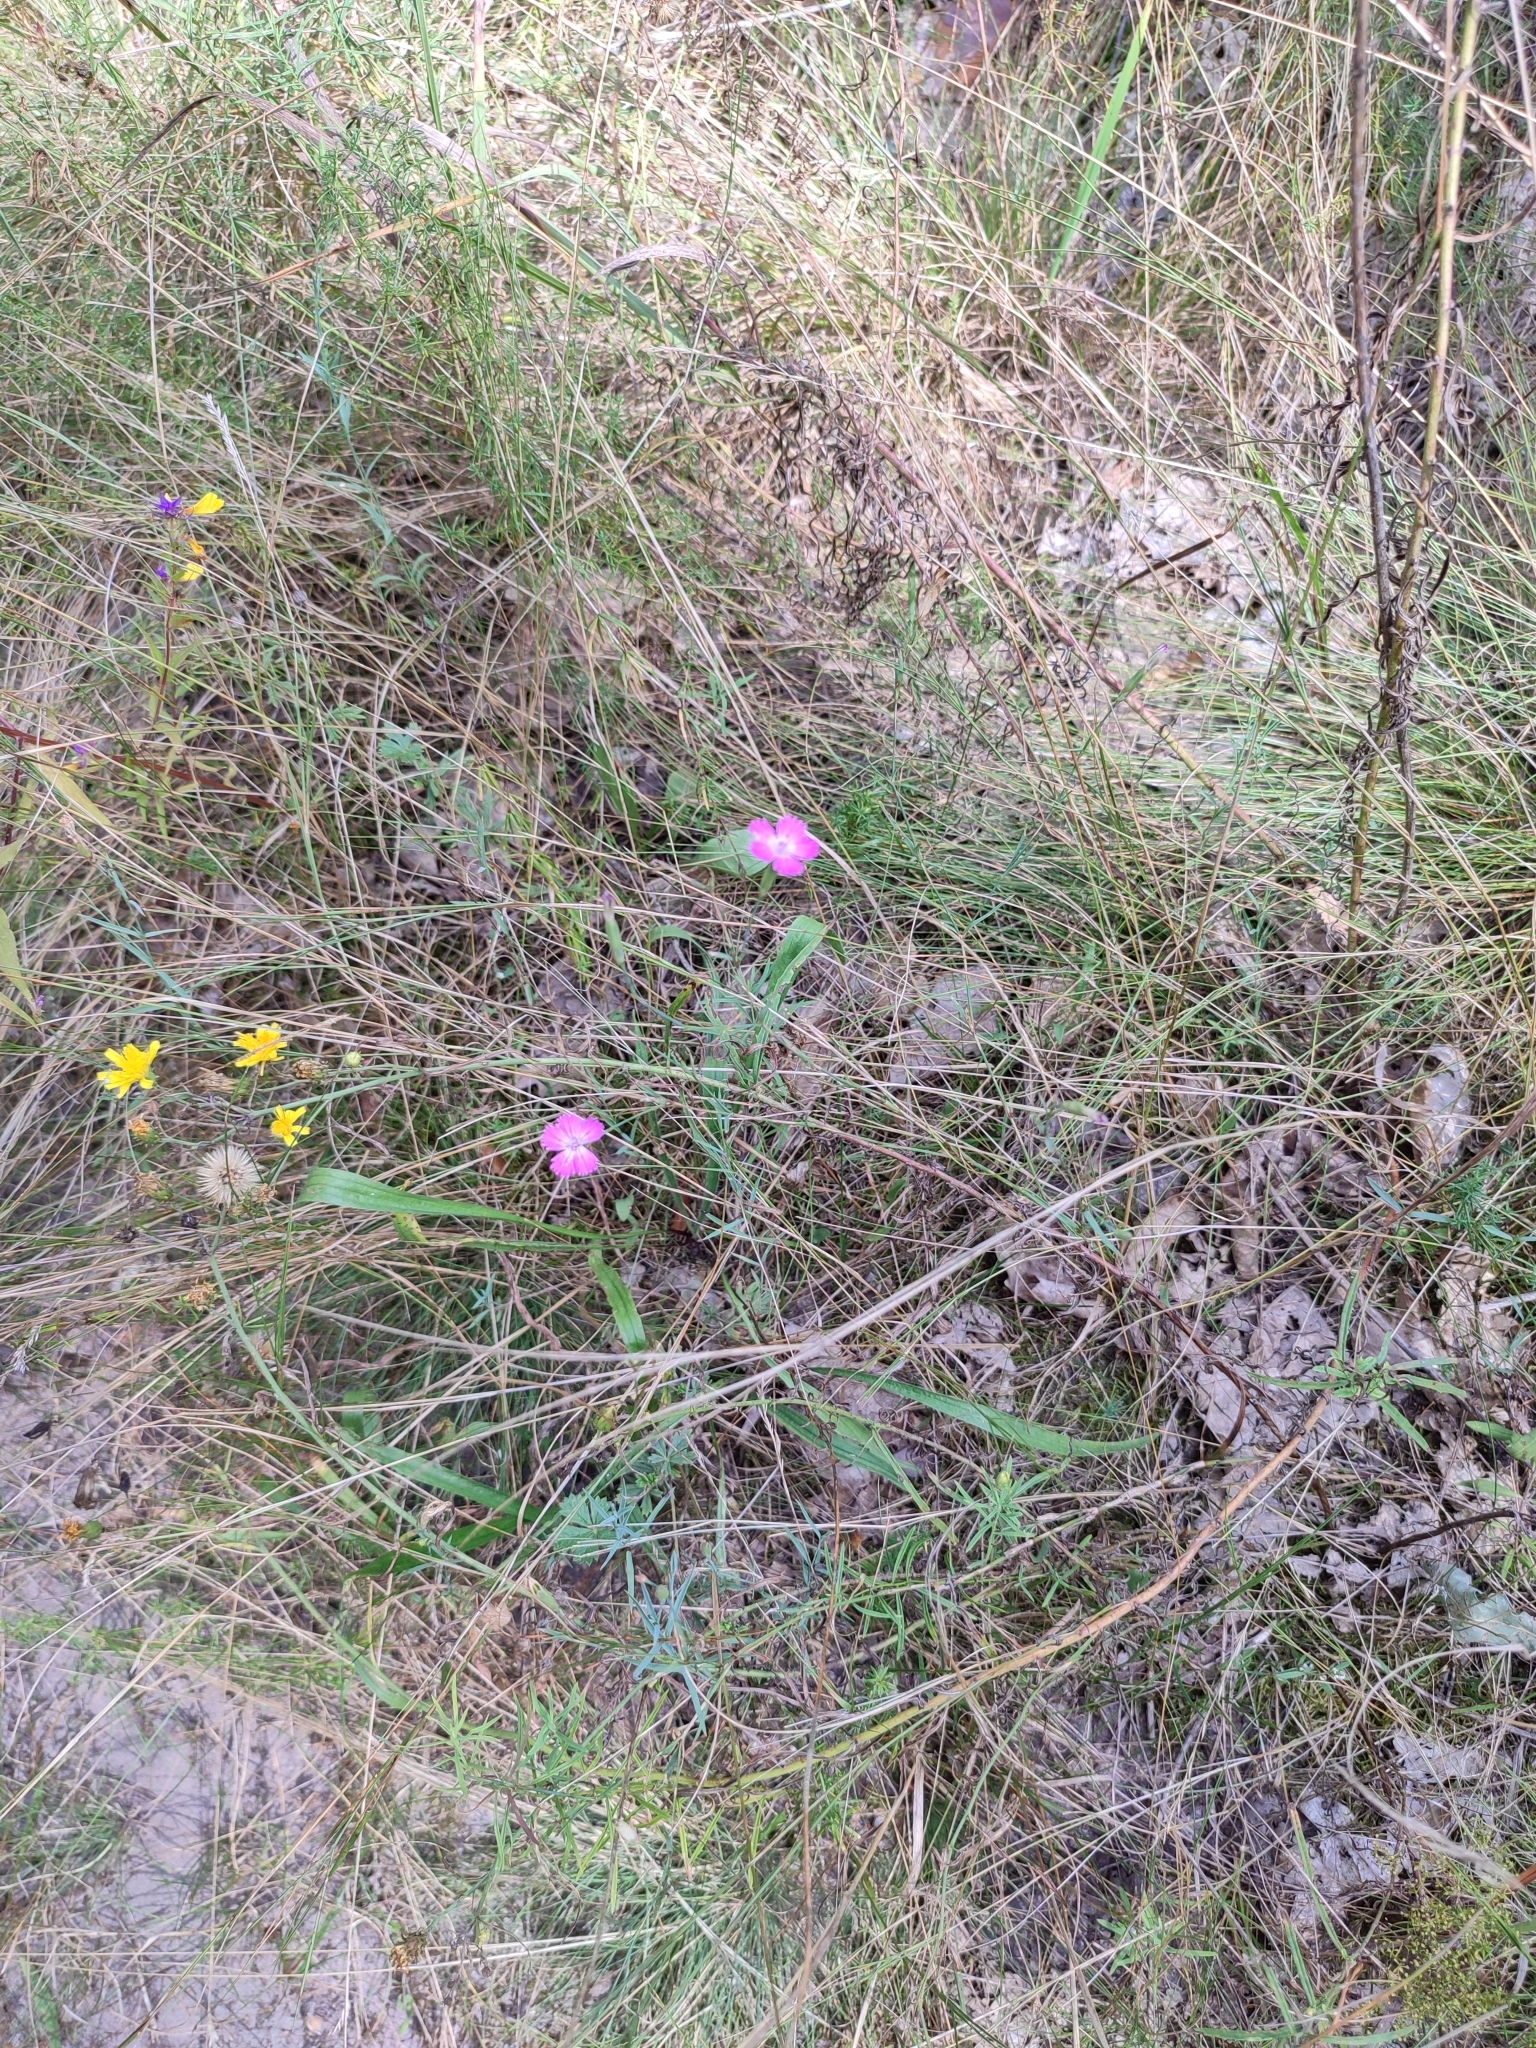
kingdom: Plantae
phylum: Tracheophyta
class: Magnoliopsida
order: Caryophyllales
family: Caryophyllaceae
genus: Dianthus
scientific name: Dianthus campestris
